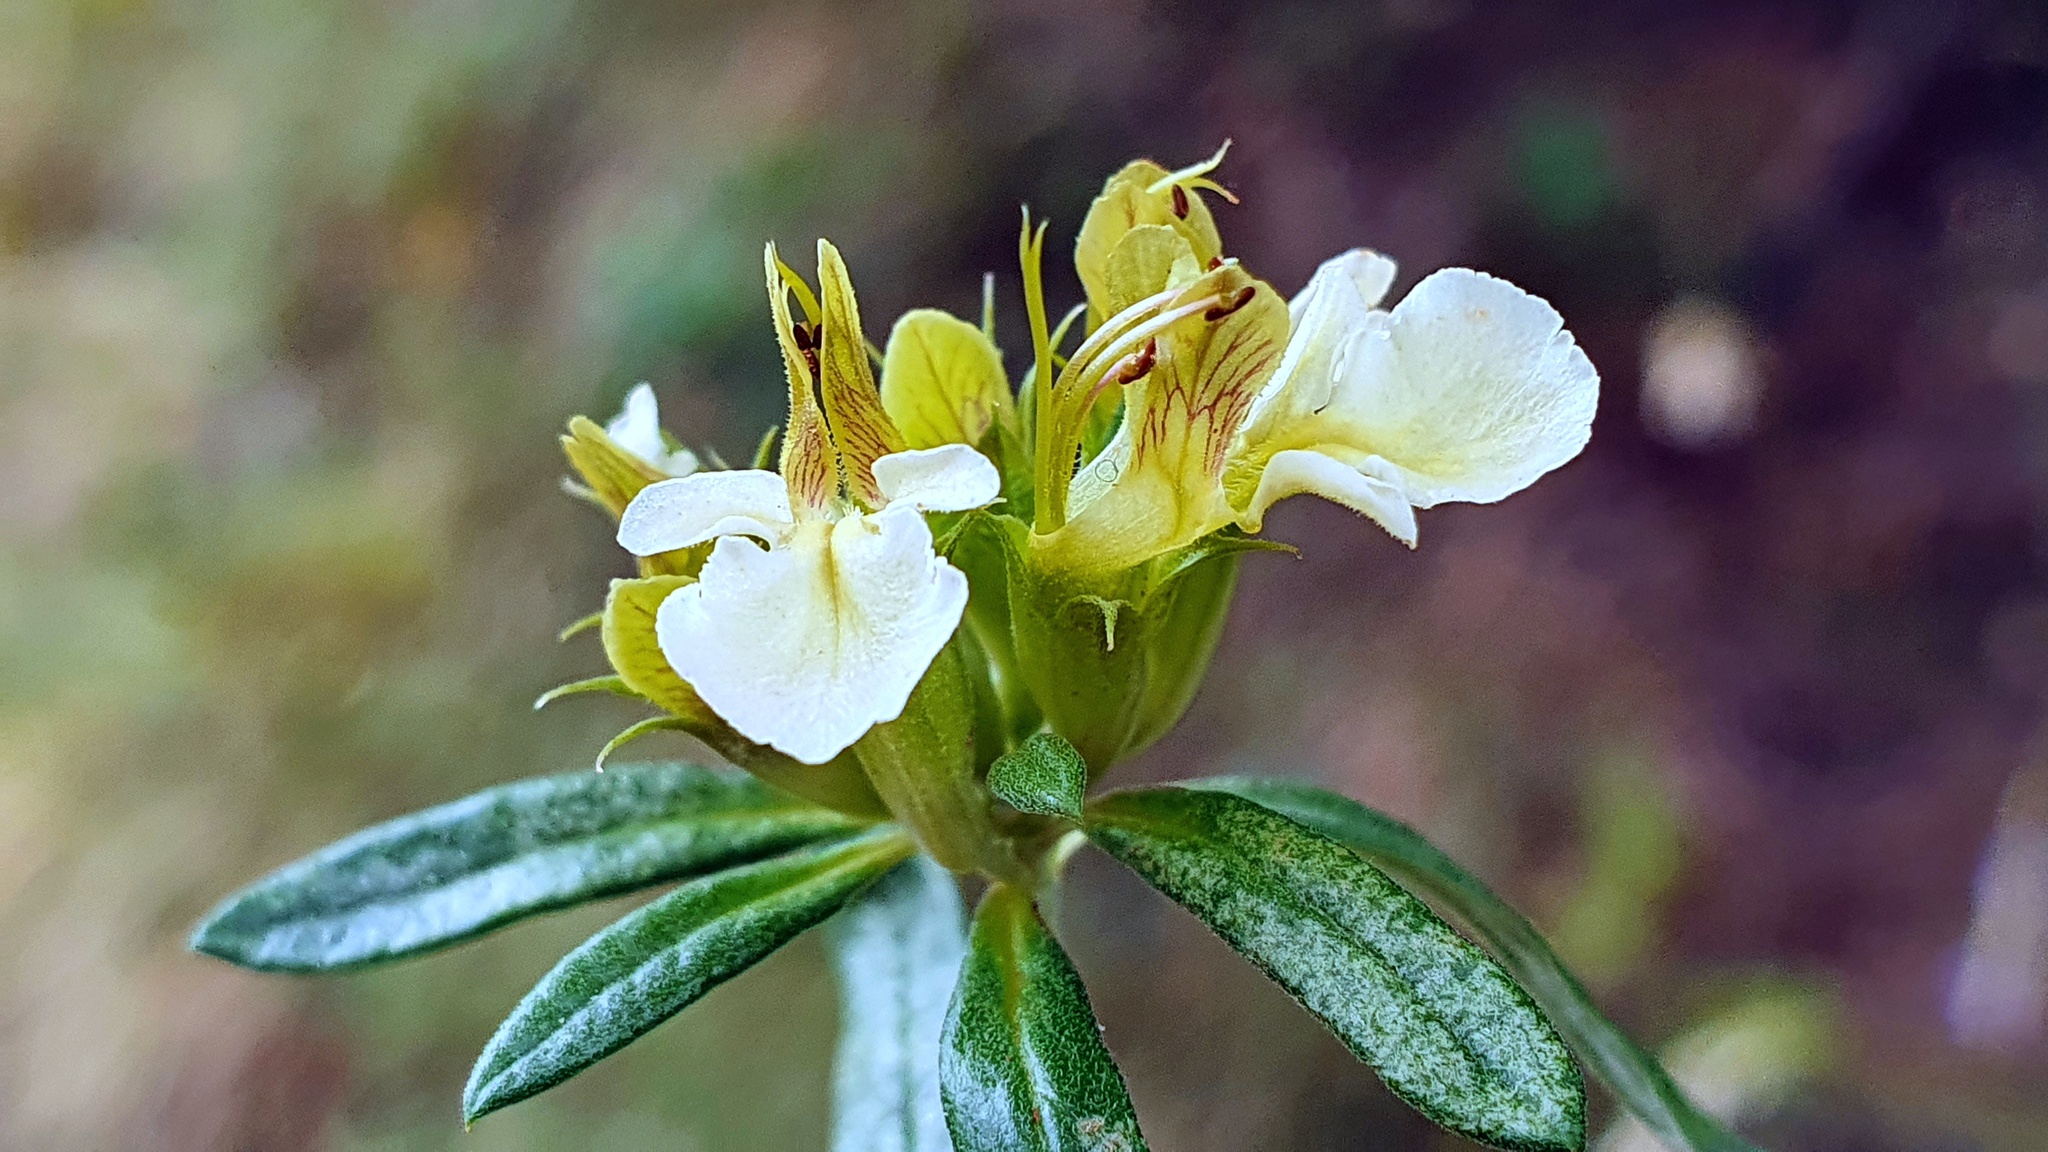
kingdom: Plantae
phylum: Tracheophyta
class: Magnoliopsida
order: Lamiales
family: Lamiaceae
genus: Teucrium
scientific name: Teucrium montanum
